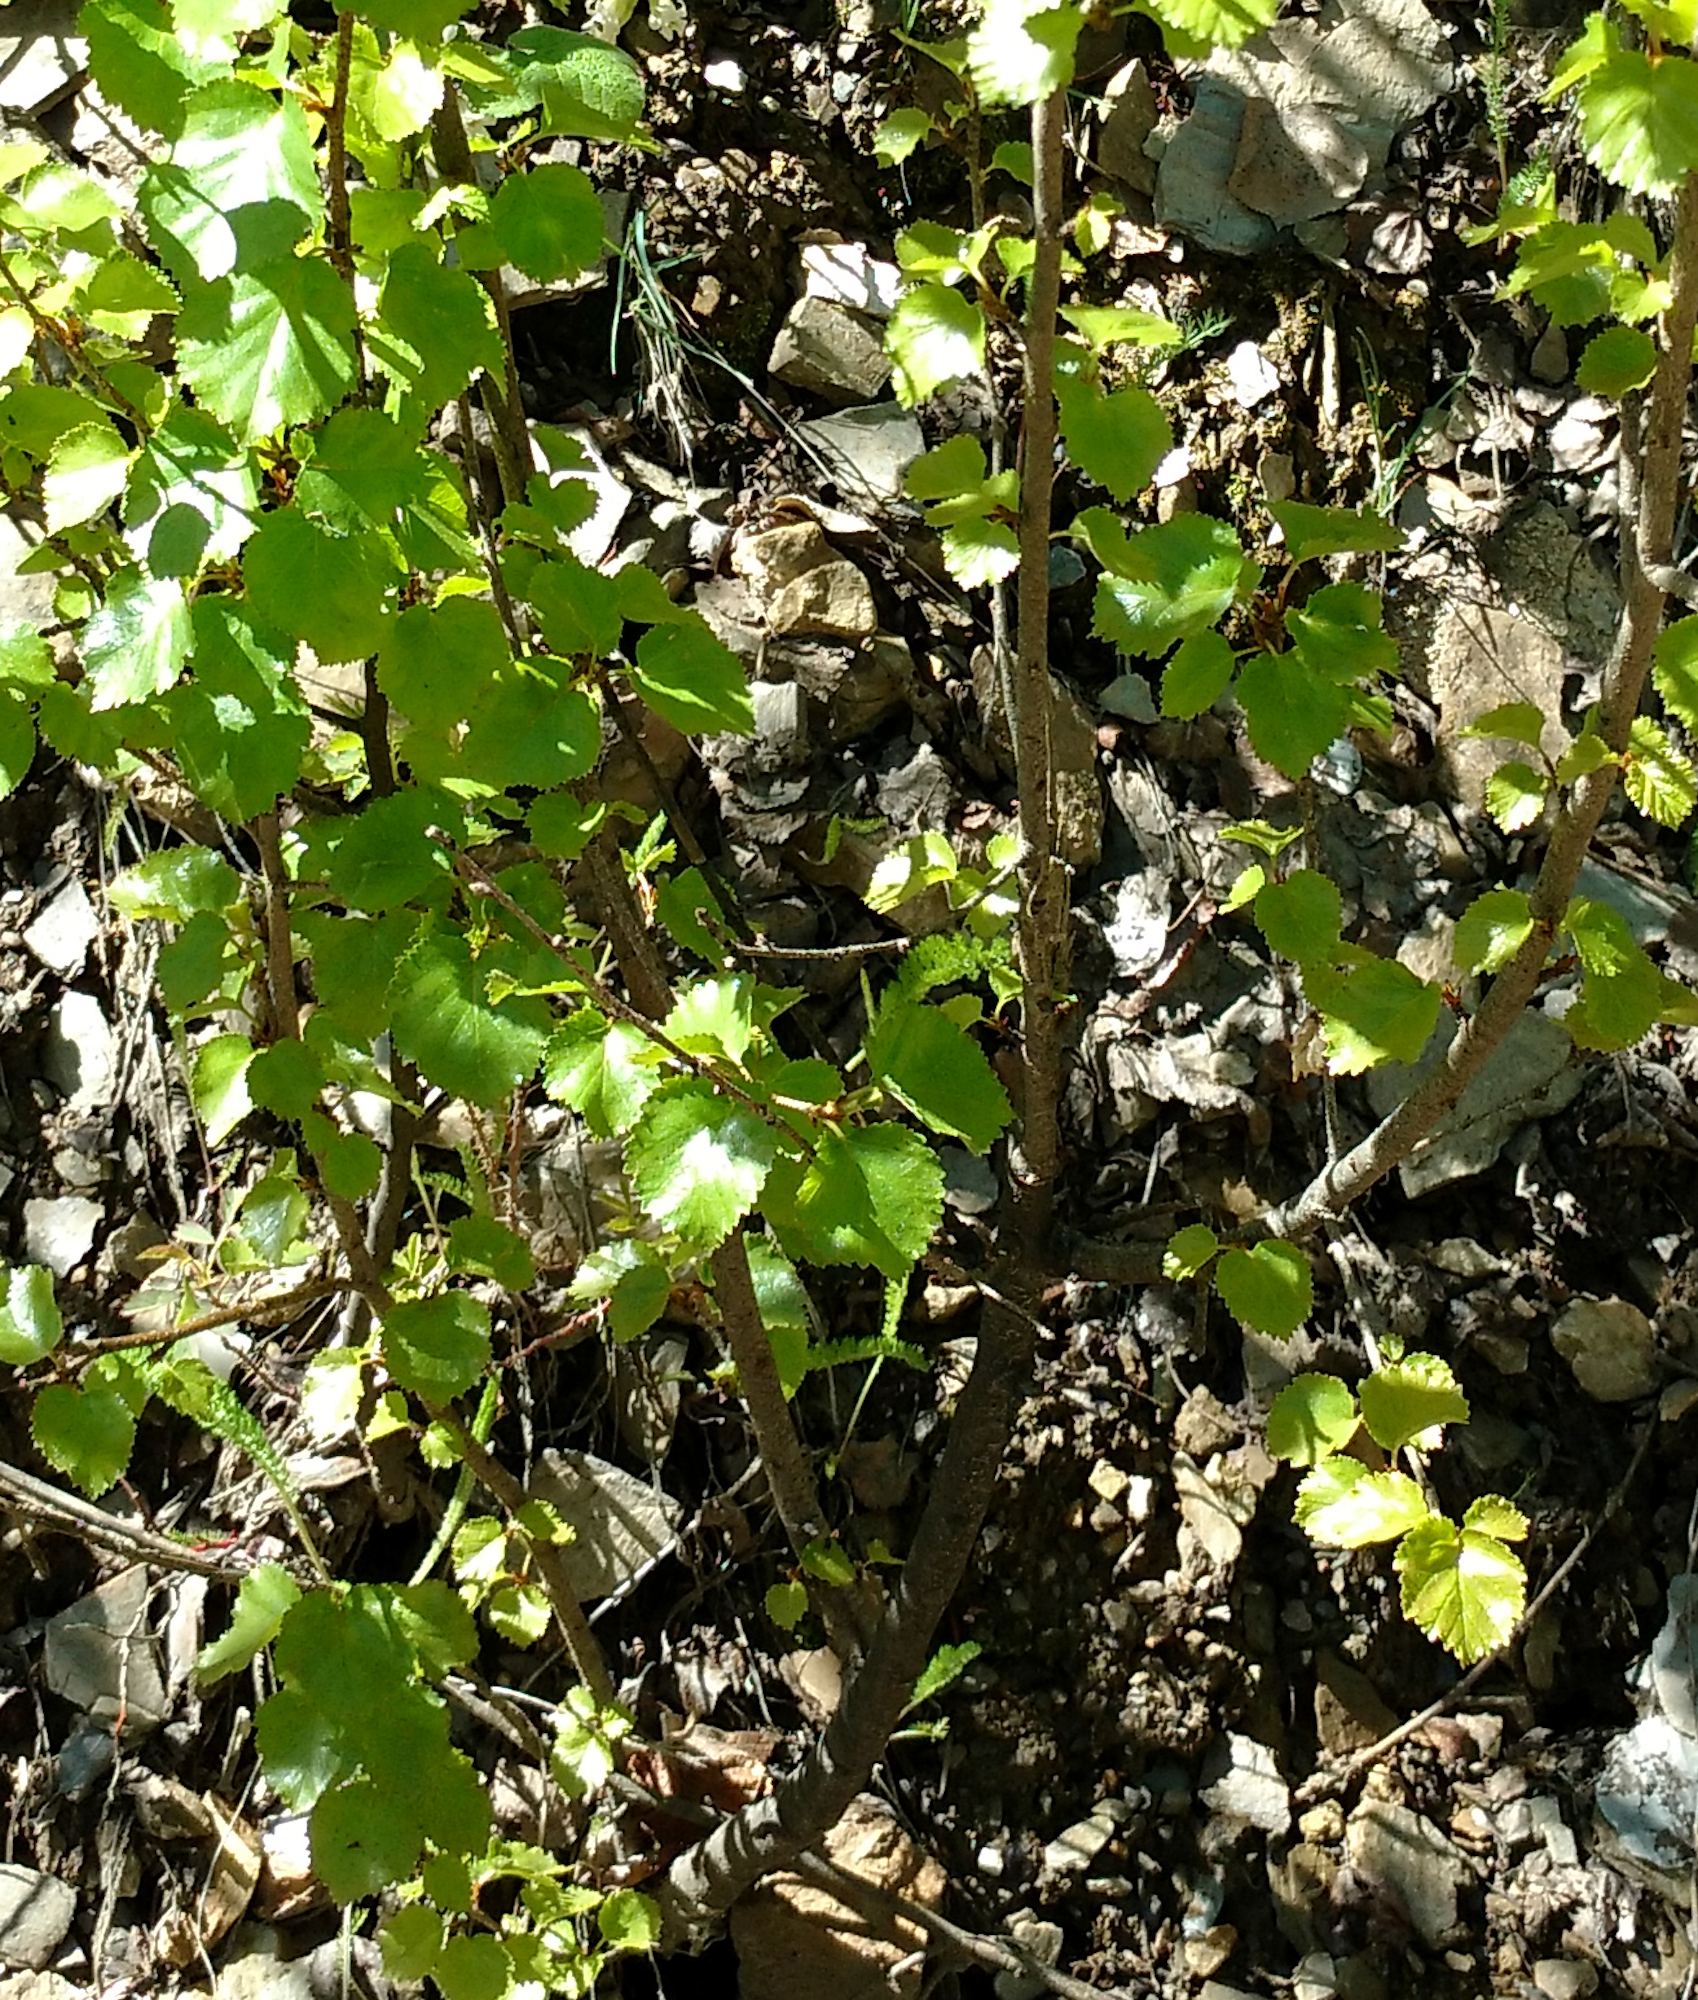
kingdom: Plantae
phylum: Tracheophyta
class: Magnoliopsida
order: Fagales
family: Betulaceae
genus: Betula
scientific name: Betula occidentalis
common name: River birch
